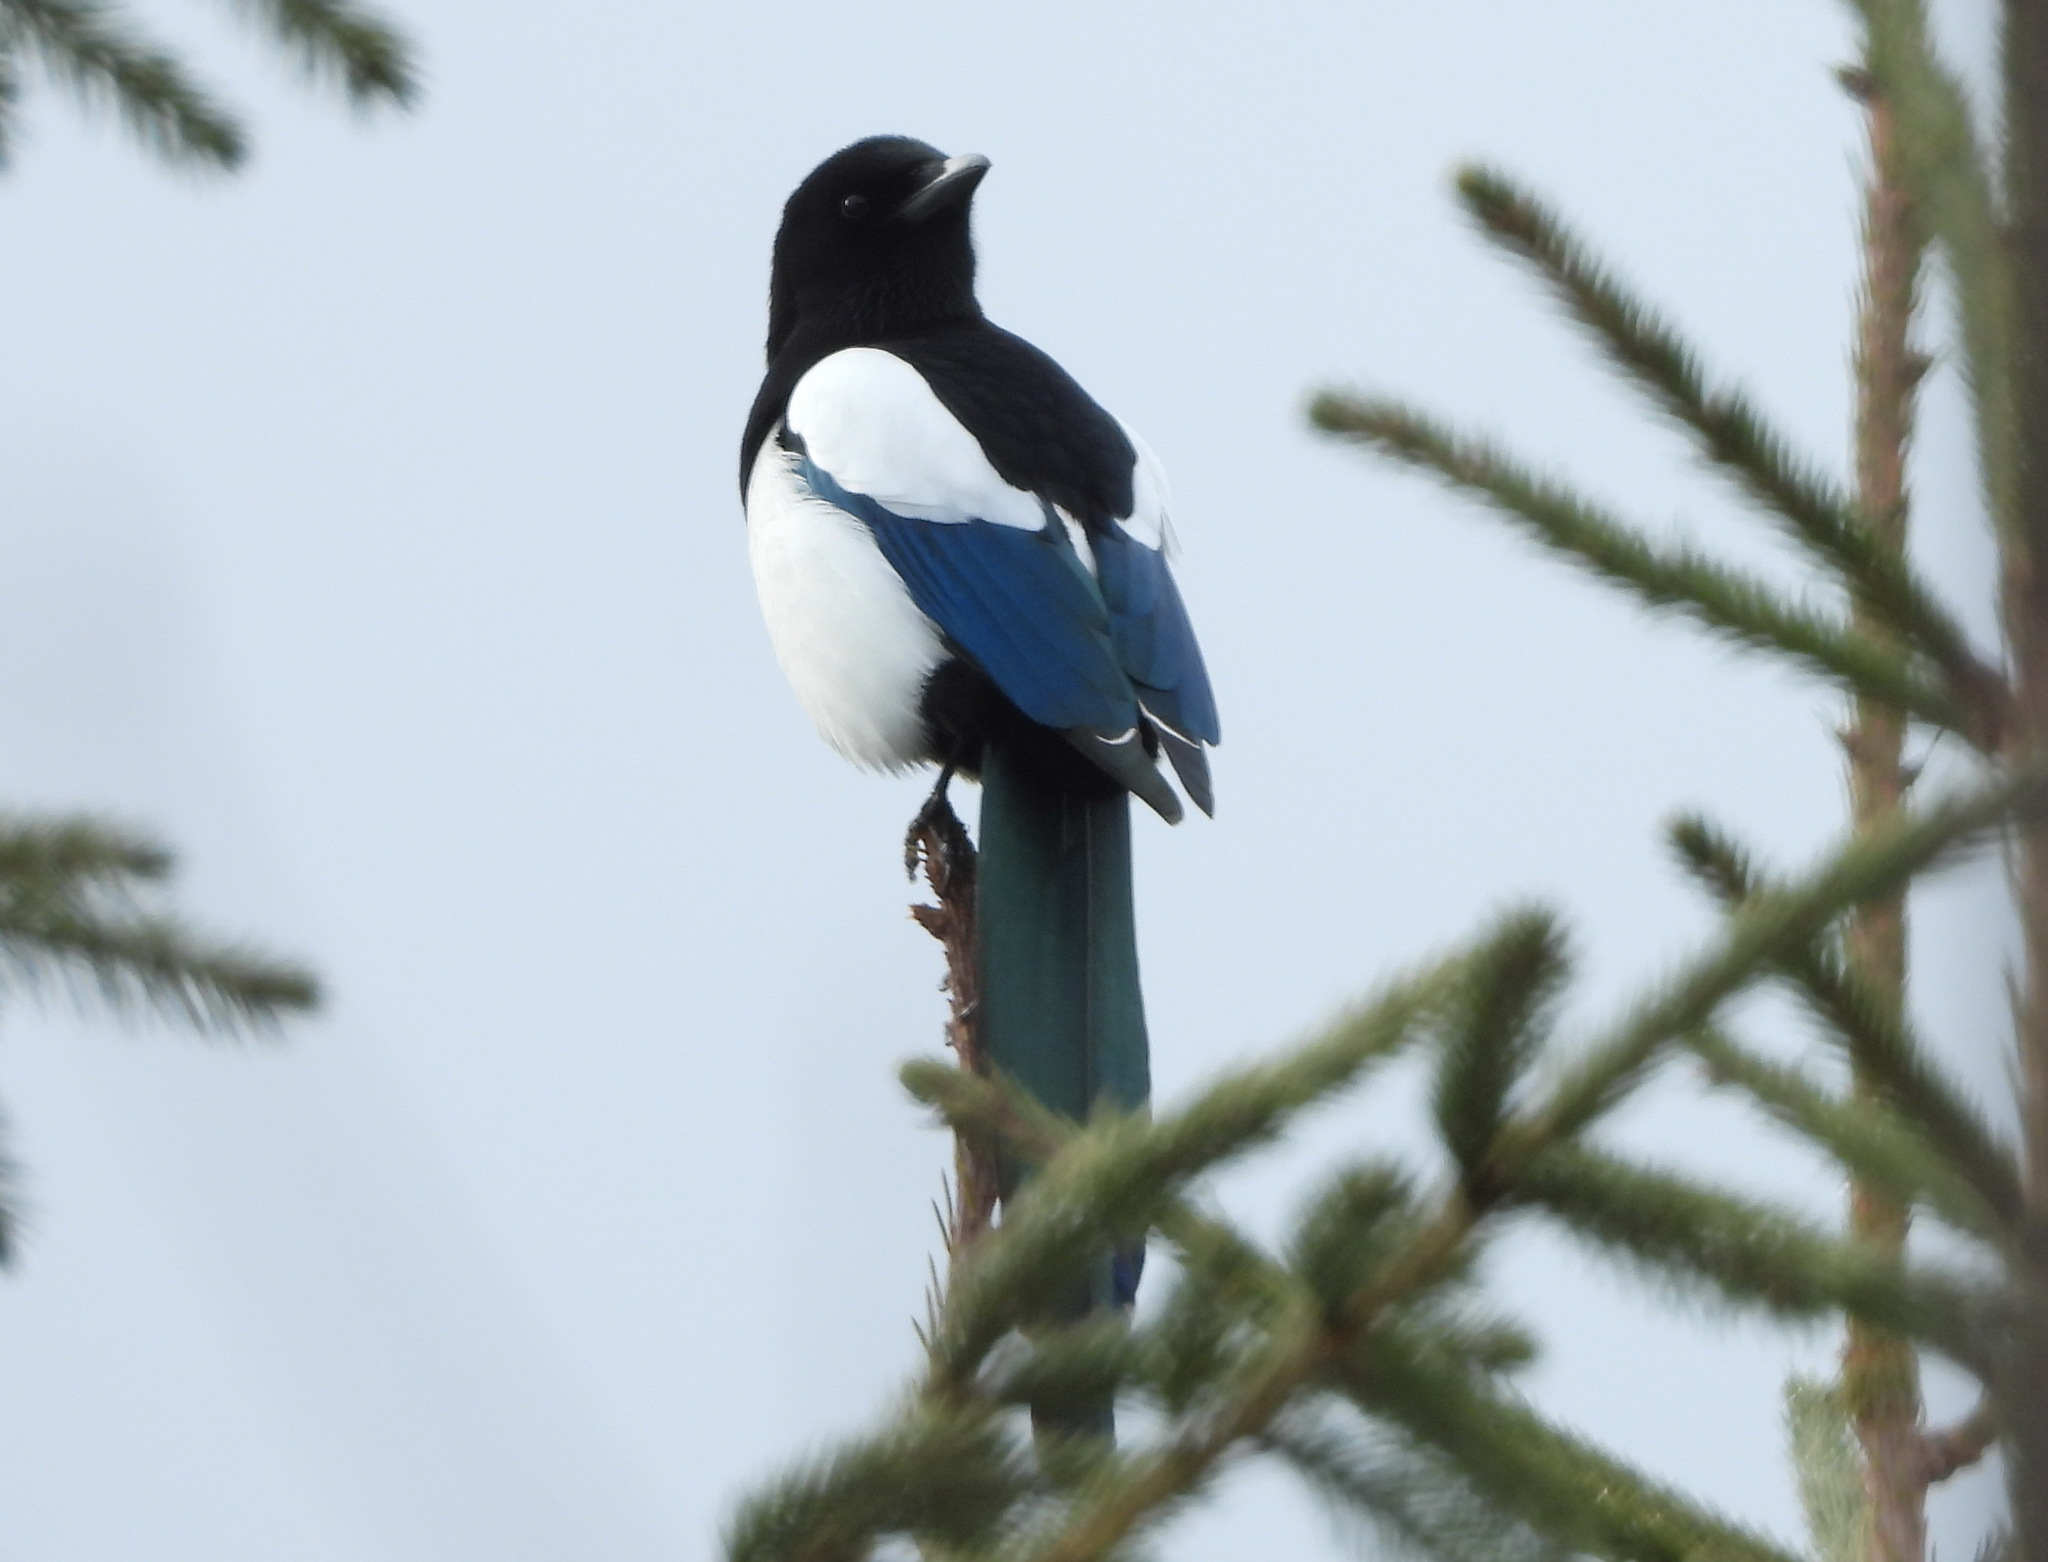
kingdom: Animalia
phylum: Chordata
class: Aves
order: Passeriformes
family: Corvidae
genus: Pica
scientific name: Pica pica
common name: Eurasian magpie
